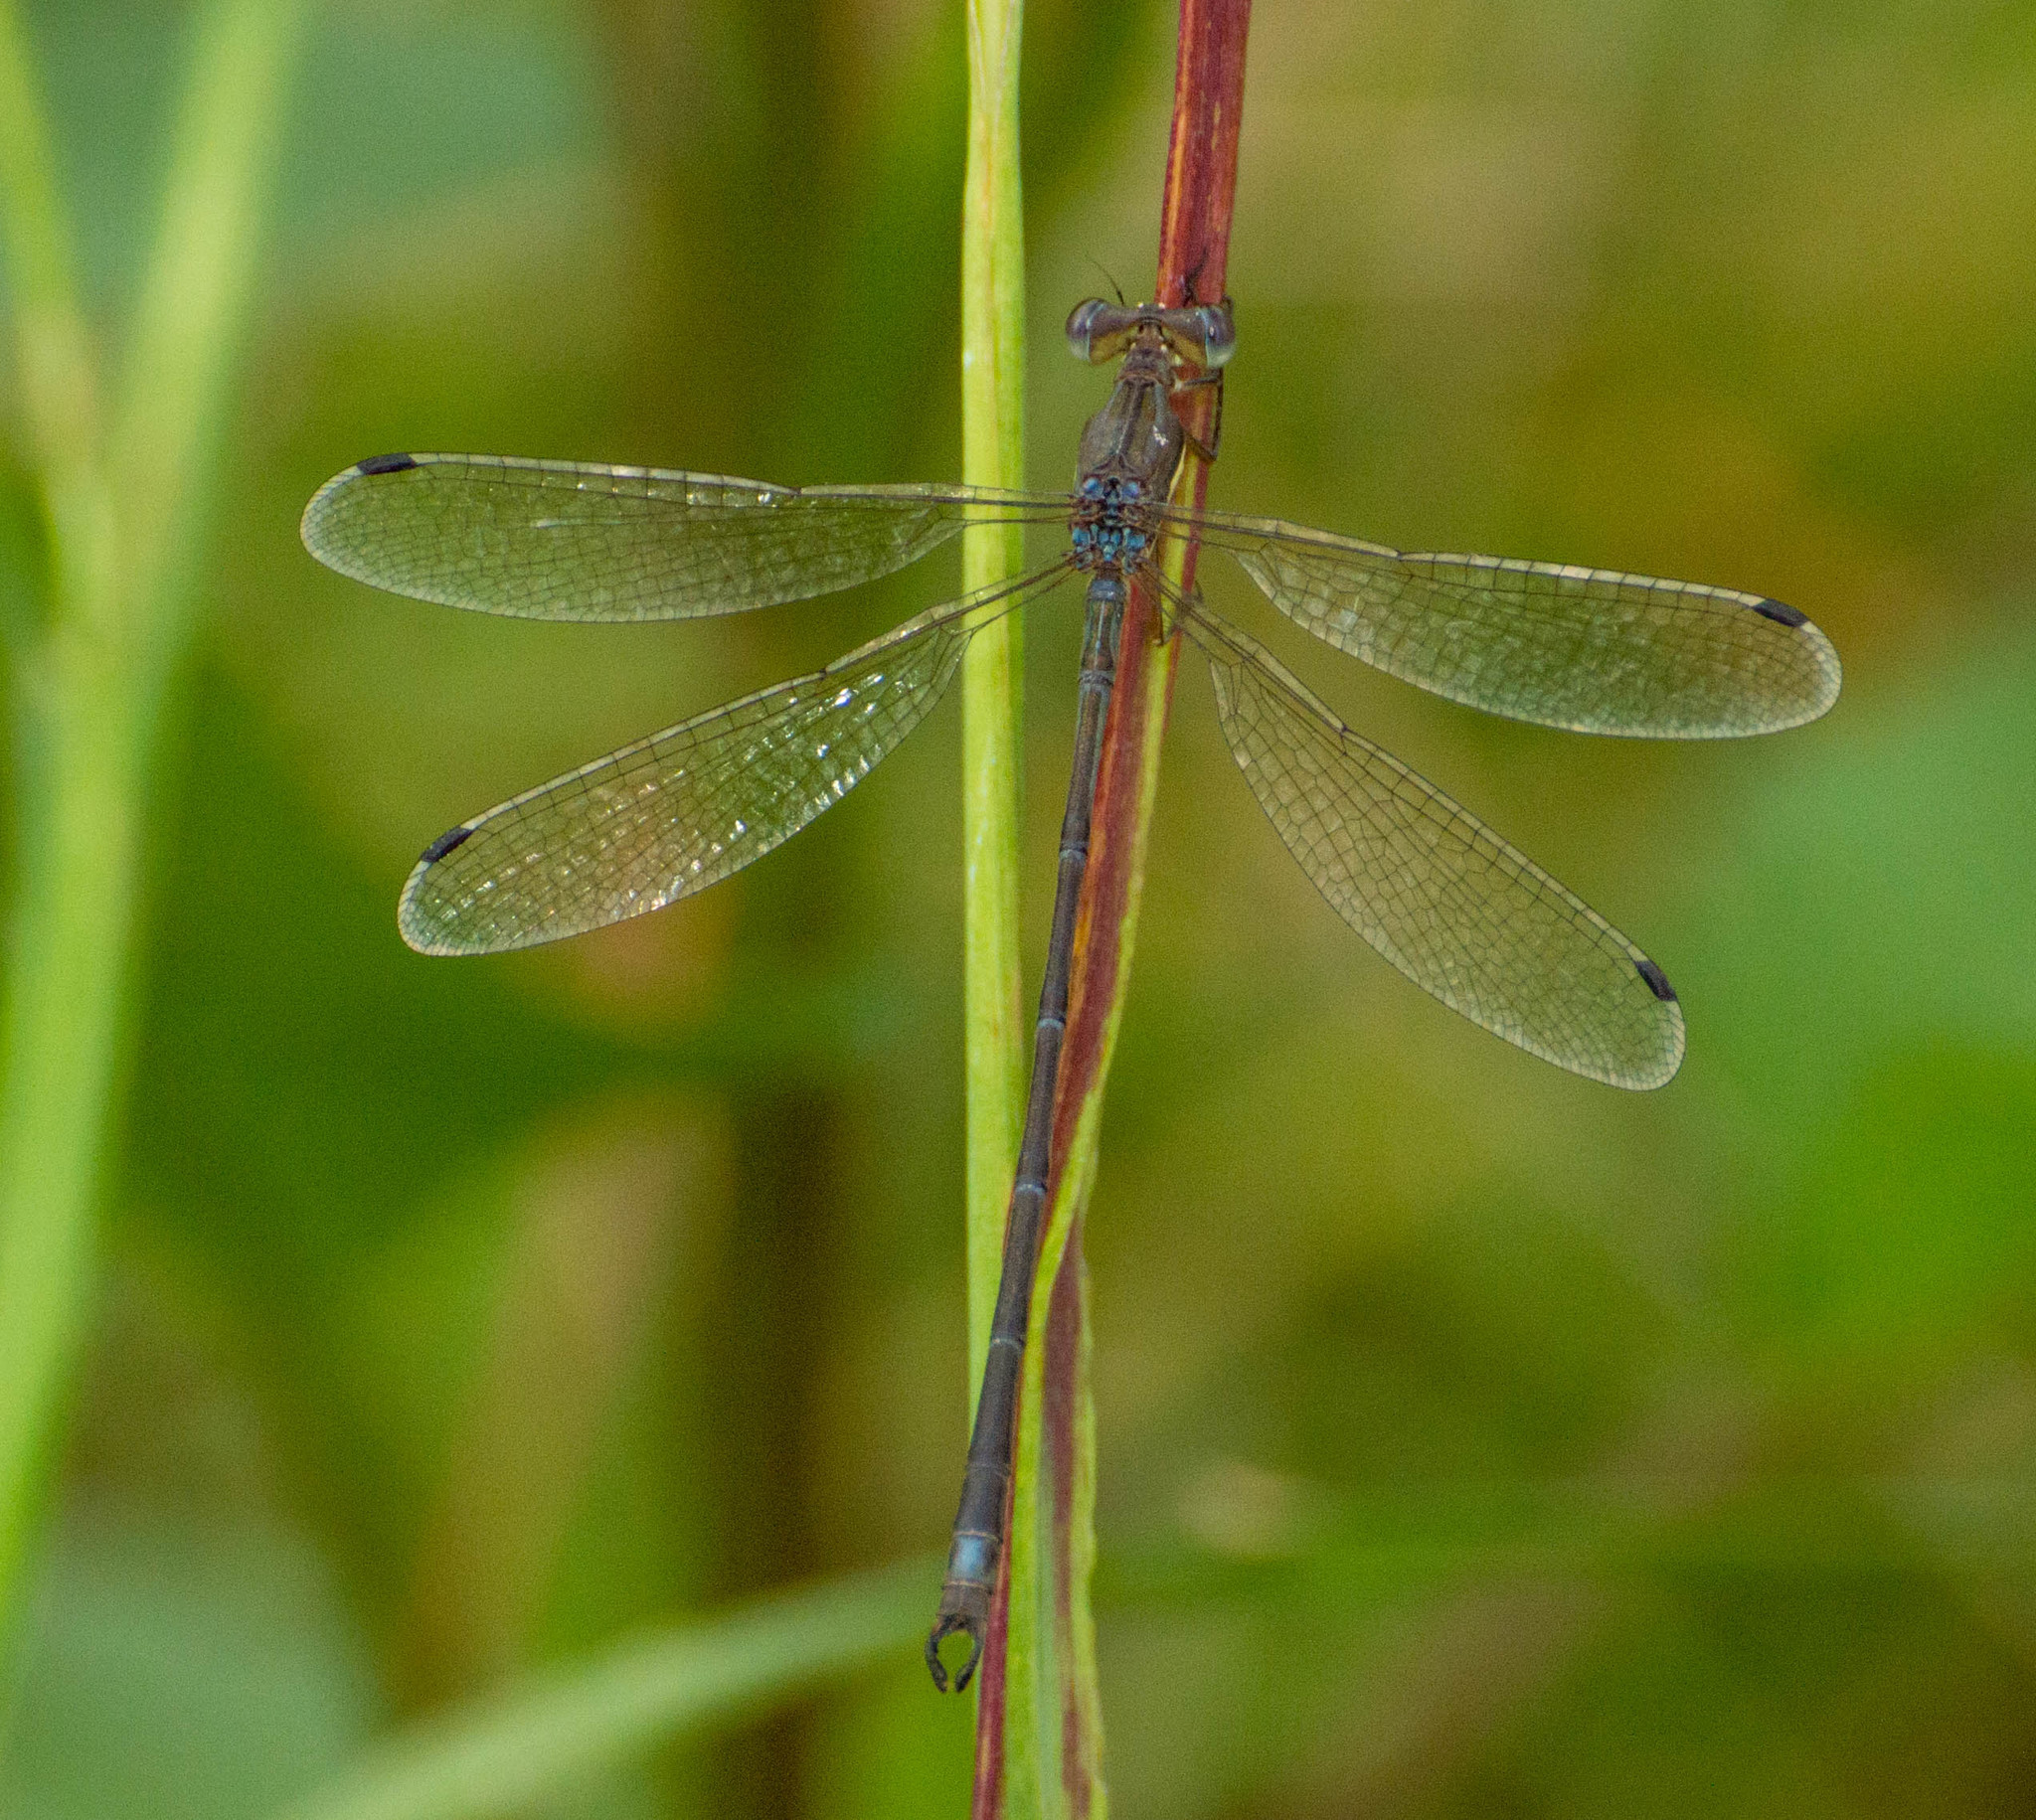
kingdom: Animalia
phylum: Arthropoda
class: Insecta
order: Odonata
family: Lestidae
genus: Lestes
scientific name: Lestes undulatus
